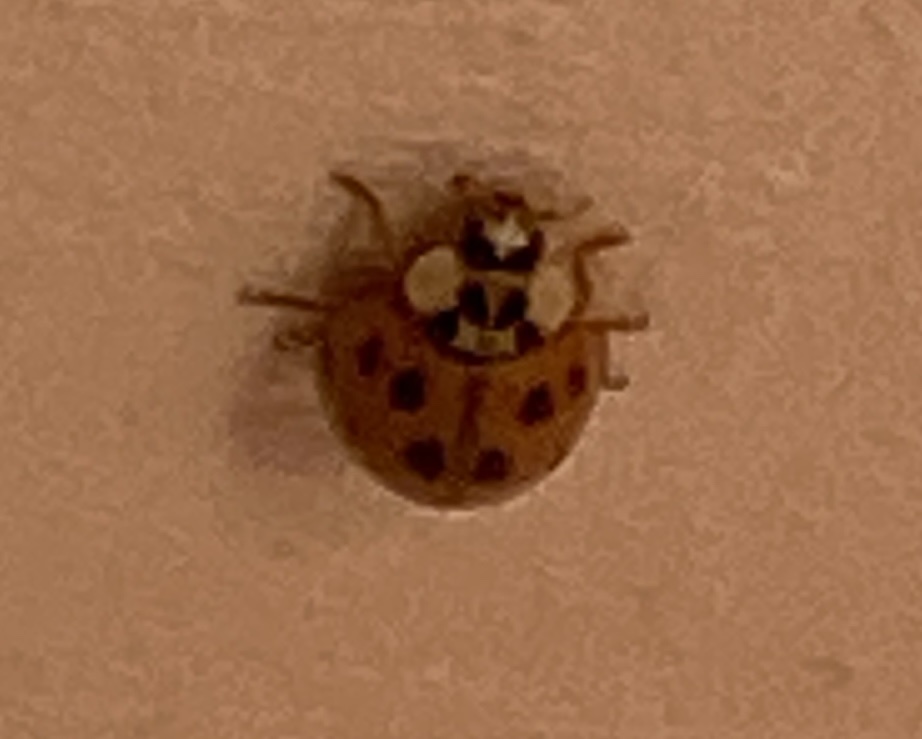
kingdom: Animalia
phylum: Arthropoda
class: Insecta
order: Coleoptera
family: Coccinellidae
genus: Harmonia
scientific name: Harmonia axyridis
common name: Harlequin ladybird
